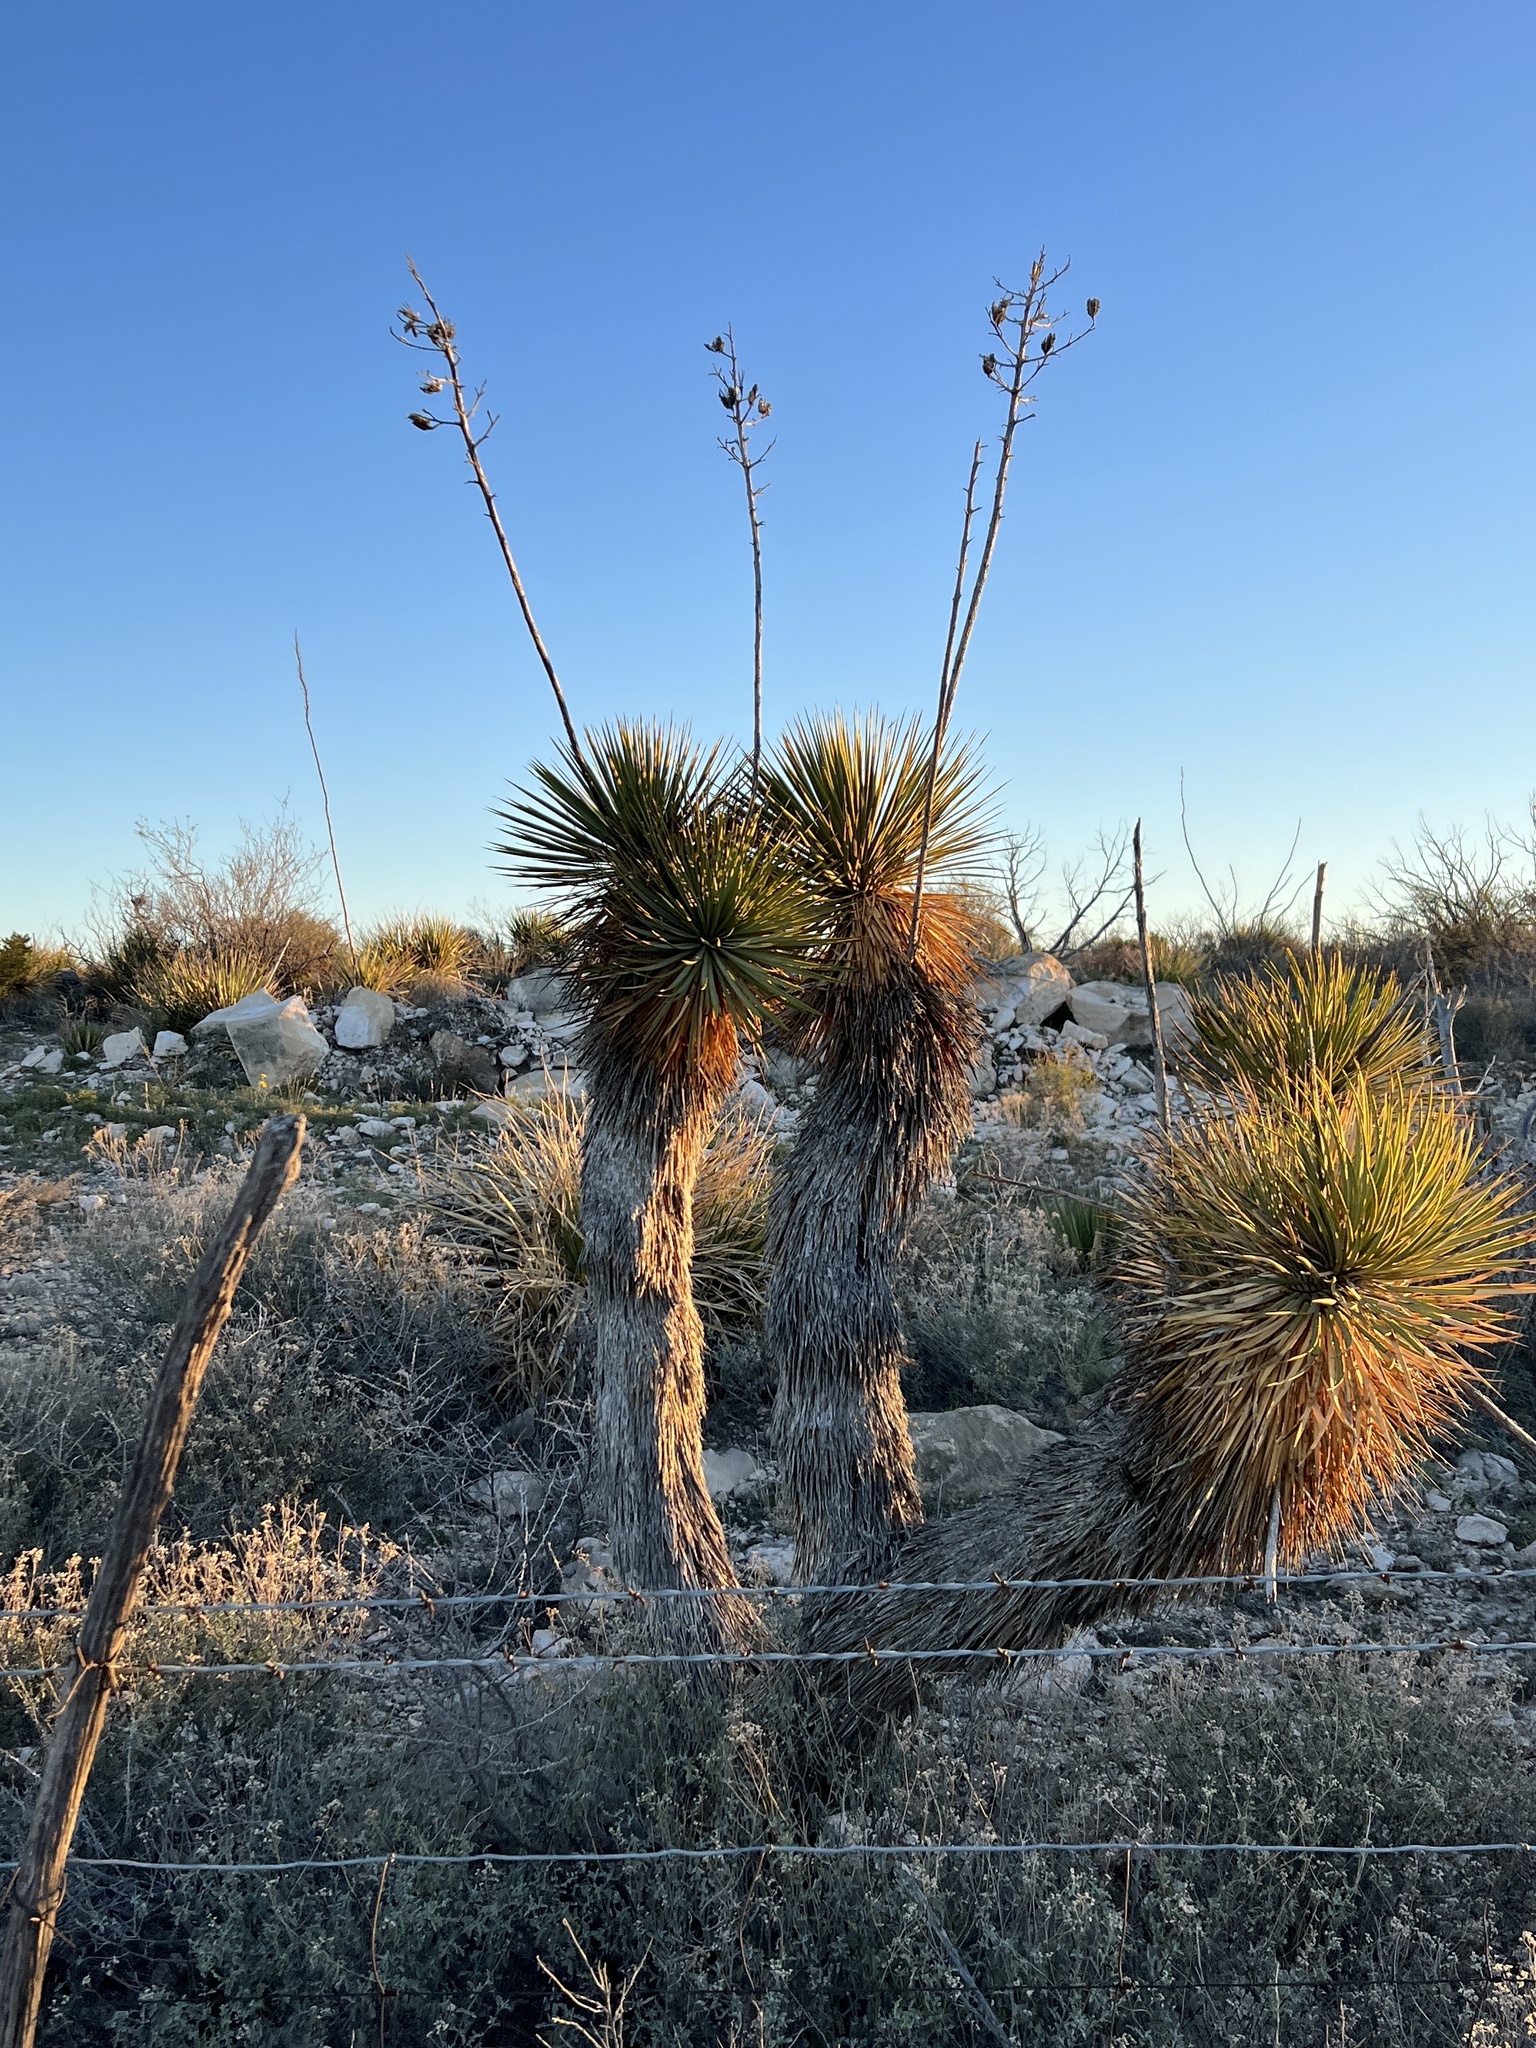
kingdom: Plantae
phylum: Tracheophyta
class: Liliopsida
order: Asparagales
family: Asparagaceae
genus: Yucca
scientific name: Yucca thompsoniana
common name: Trans-pecos yucca
